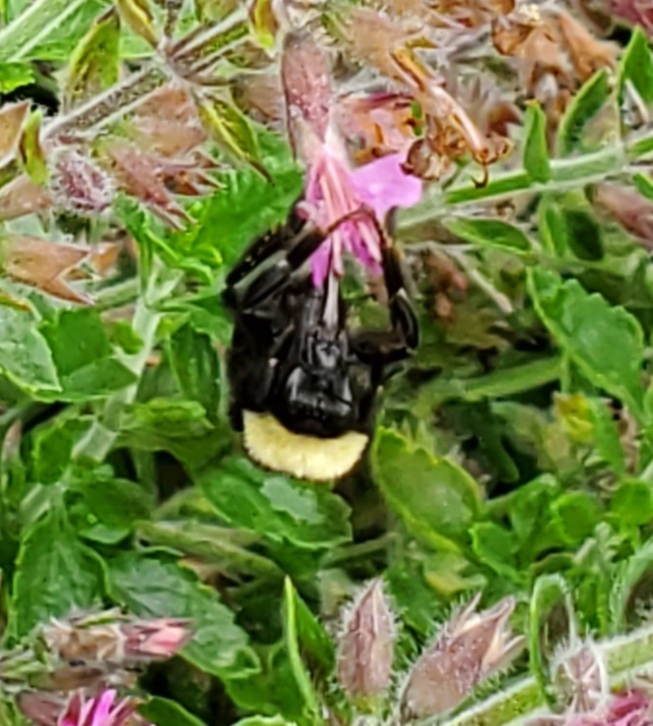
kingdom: Animalia
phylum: Arthropoda
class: Insecta
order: Hymenoptera
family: Apidae
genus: Bombus
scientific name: Bombus californicus
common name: California bumble bee
